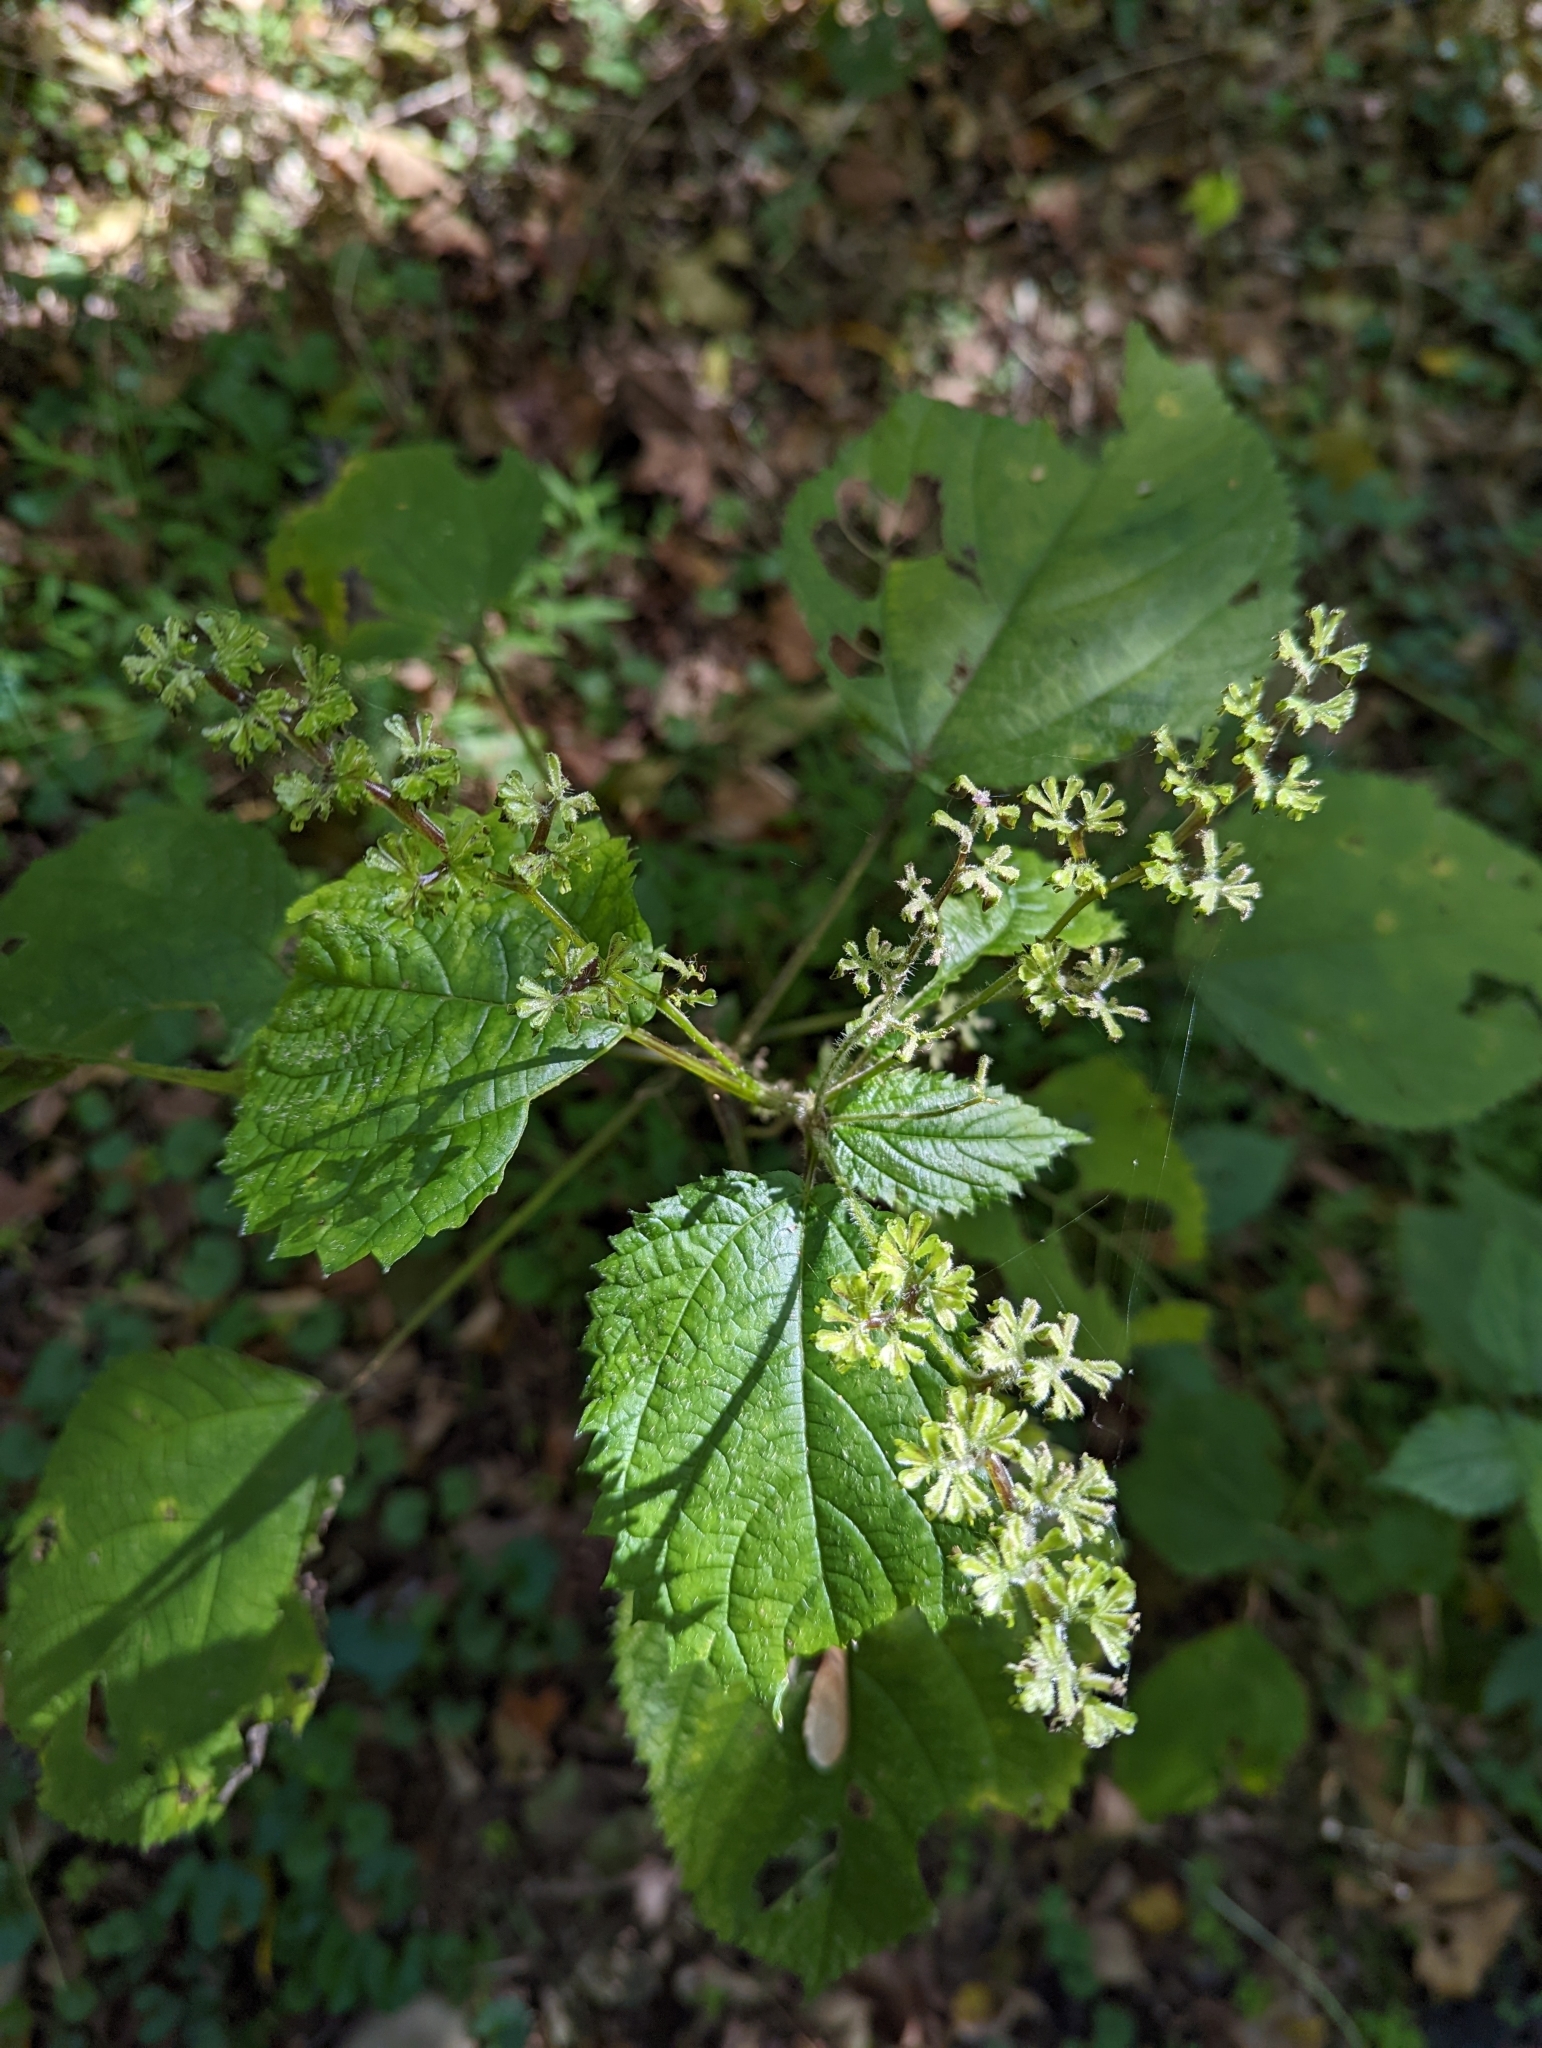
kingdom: Plantae
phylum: Tracheophyta
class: Magnoliopsida
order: Rosales
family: Urticaceae
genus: Laportea
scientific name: Laportea canadensis
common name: Canada nettle
